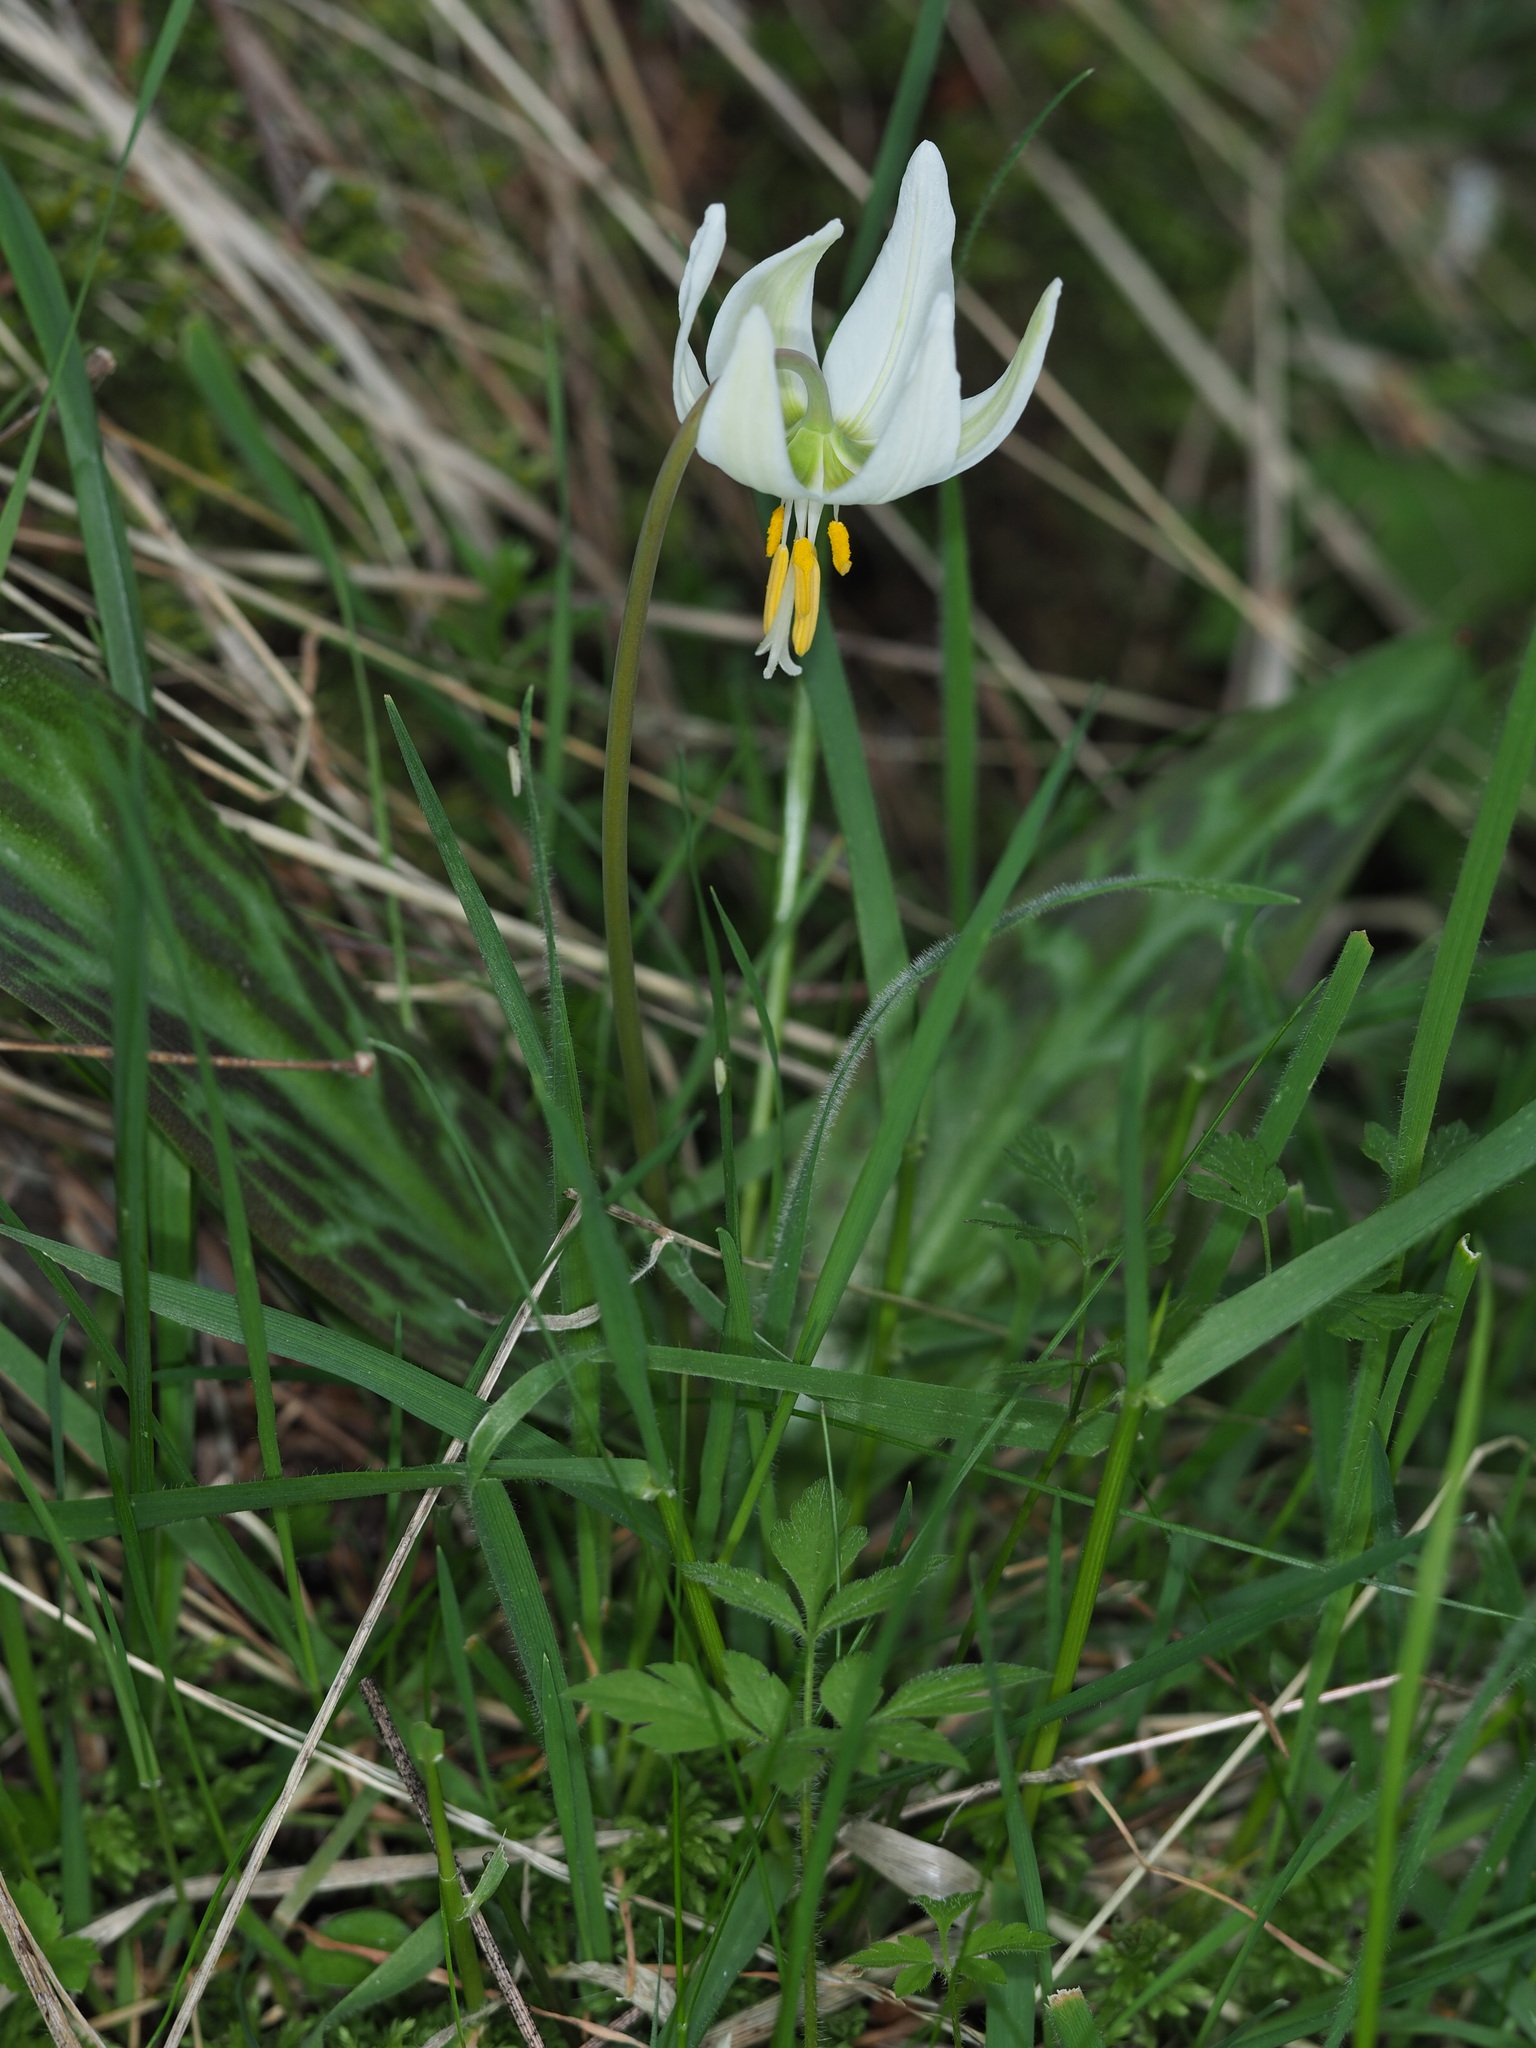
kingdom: Plantae
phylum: Tracheophyta
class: Liliopsida
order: Liliales
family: Liliaceae
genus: Erythronium
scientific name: Erythronium oregonum
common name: Giant adder's-tongue
